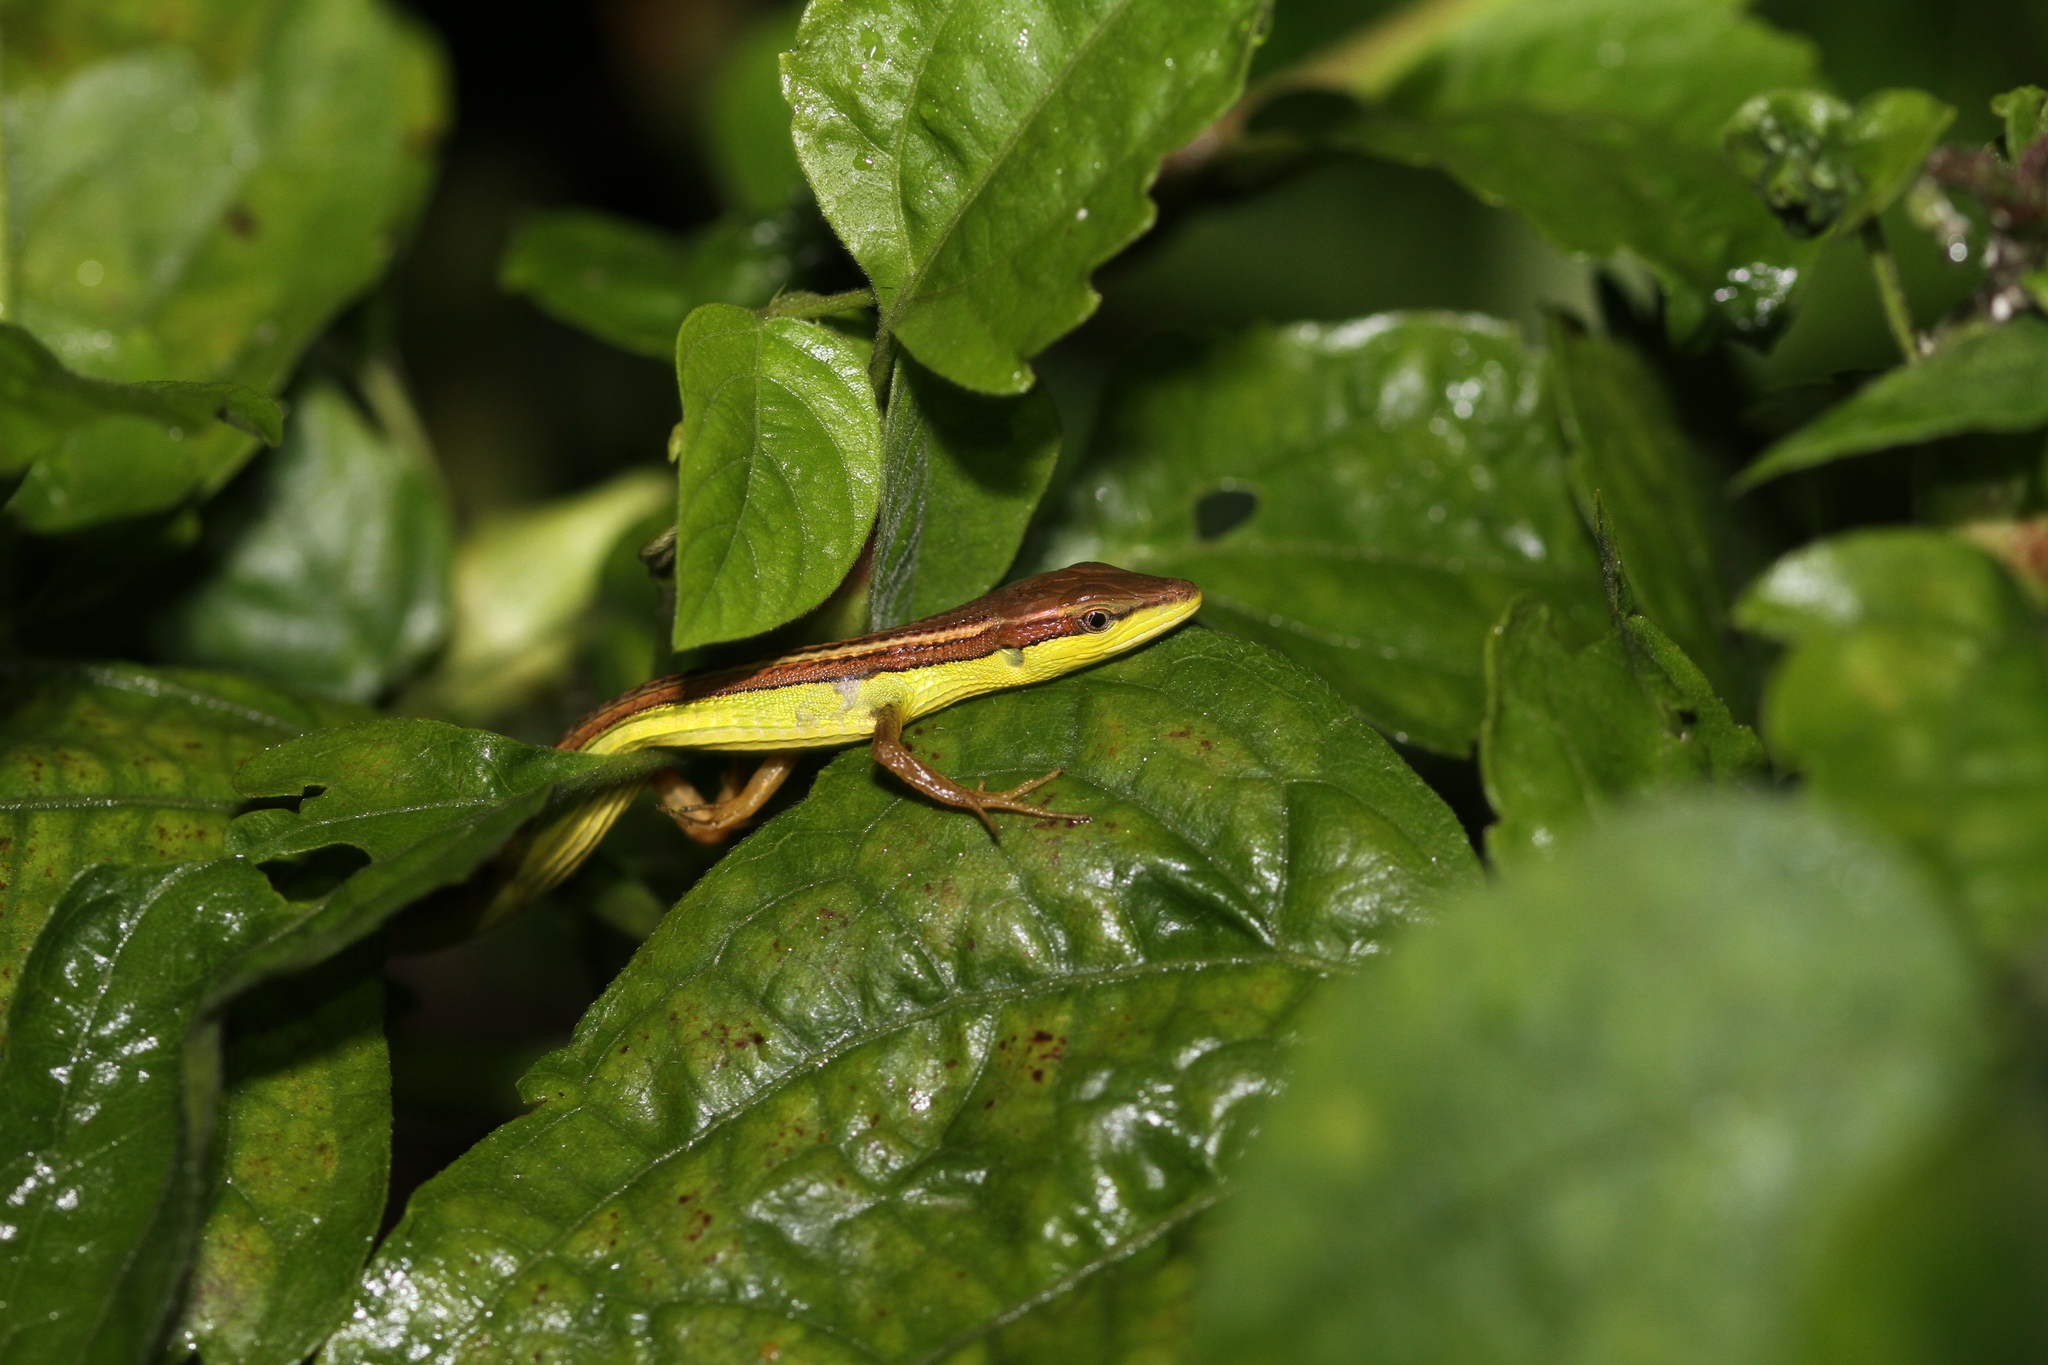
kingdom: Animalia
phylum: Chordata
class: Squamata
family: Lacertidae
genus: Takydromus
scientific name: Takydromus sexlineatus
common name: Asian grass lizard
